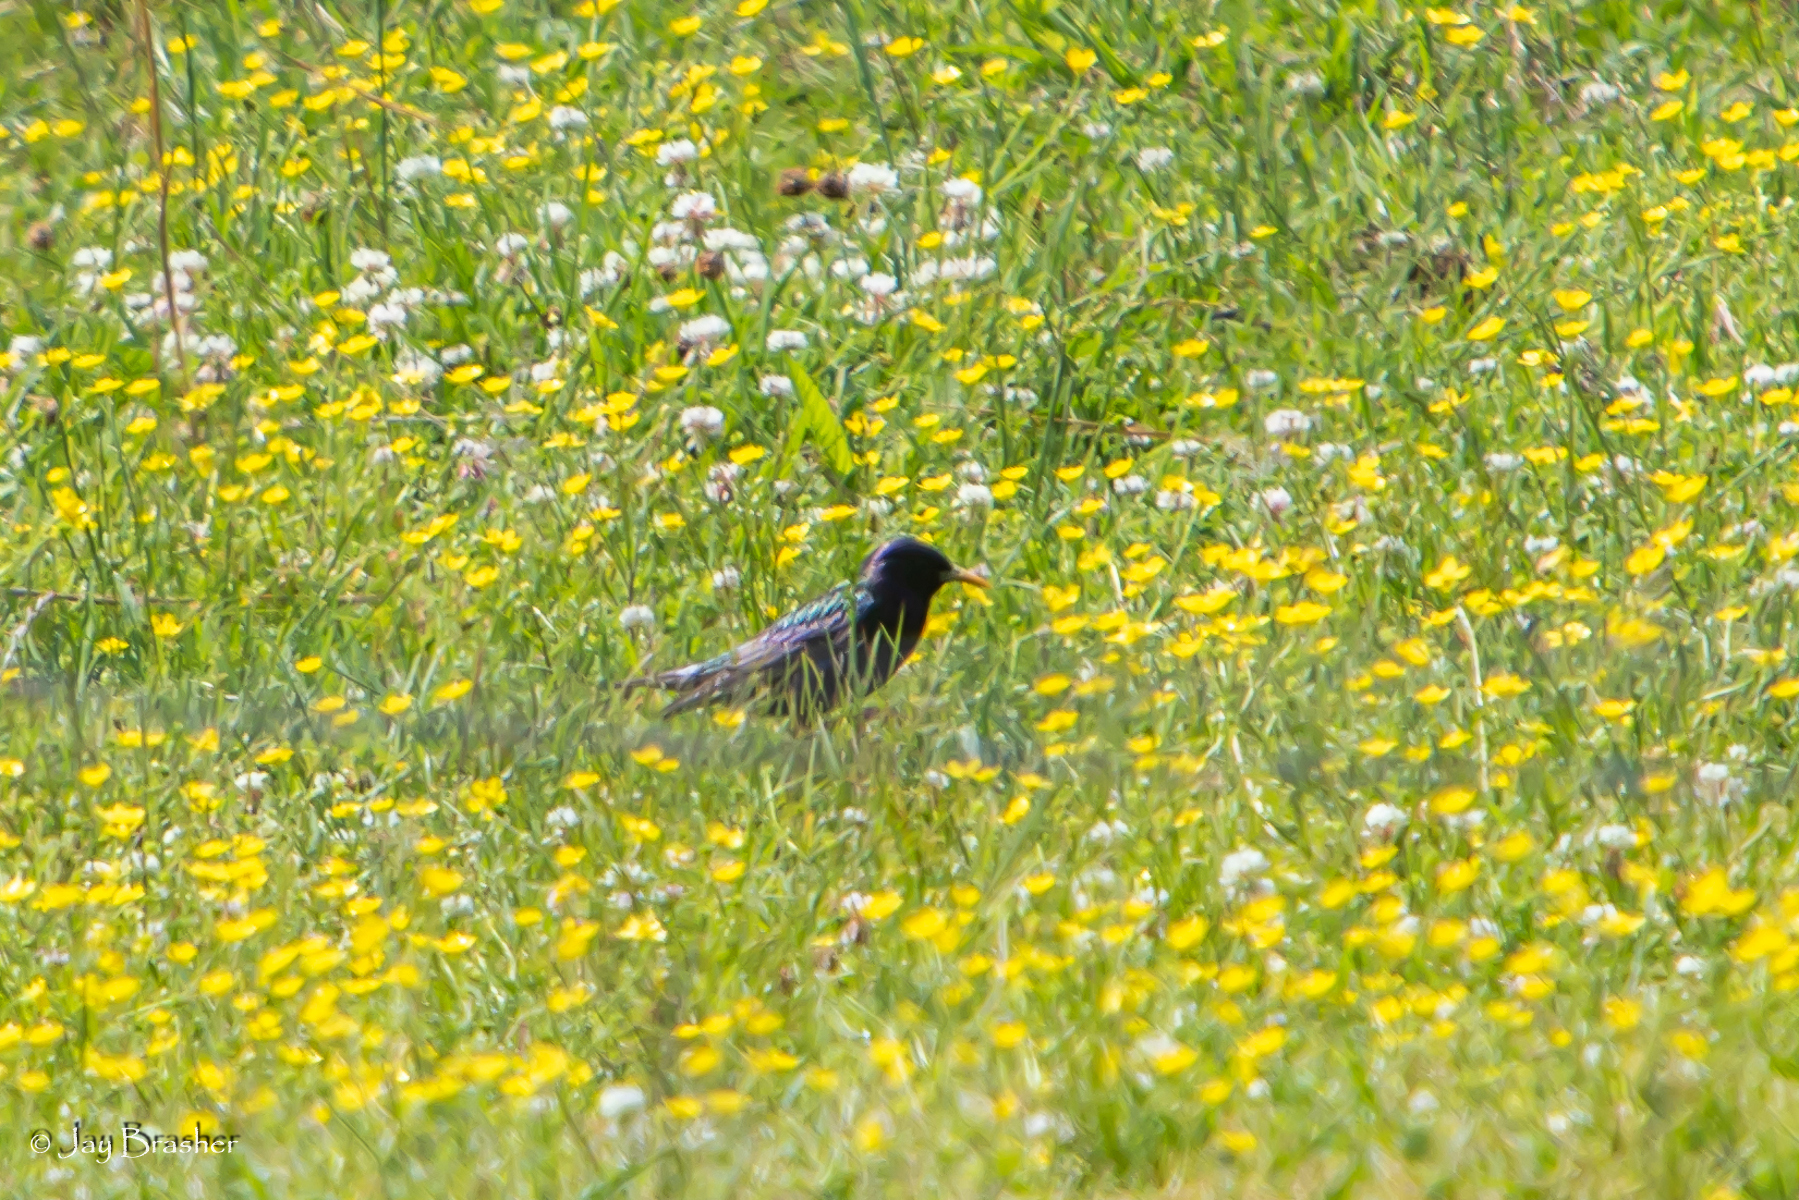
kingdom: Animalia
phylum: Chordata
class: Aves
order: Passeriformes
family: Sturnidae
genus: Sturnus
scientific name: Sturnus vulgaris
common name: Common starling
